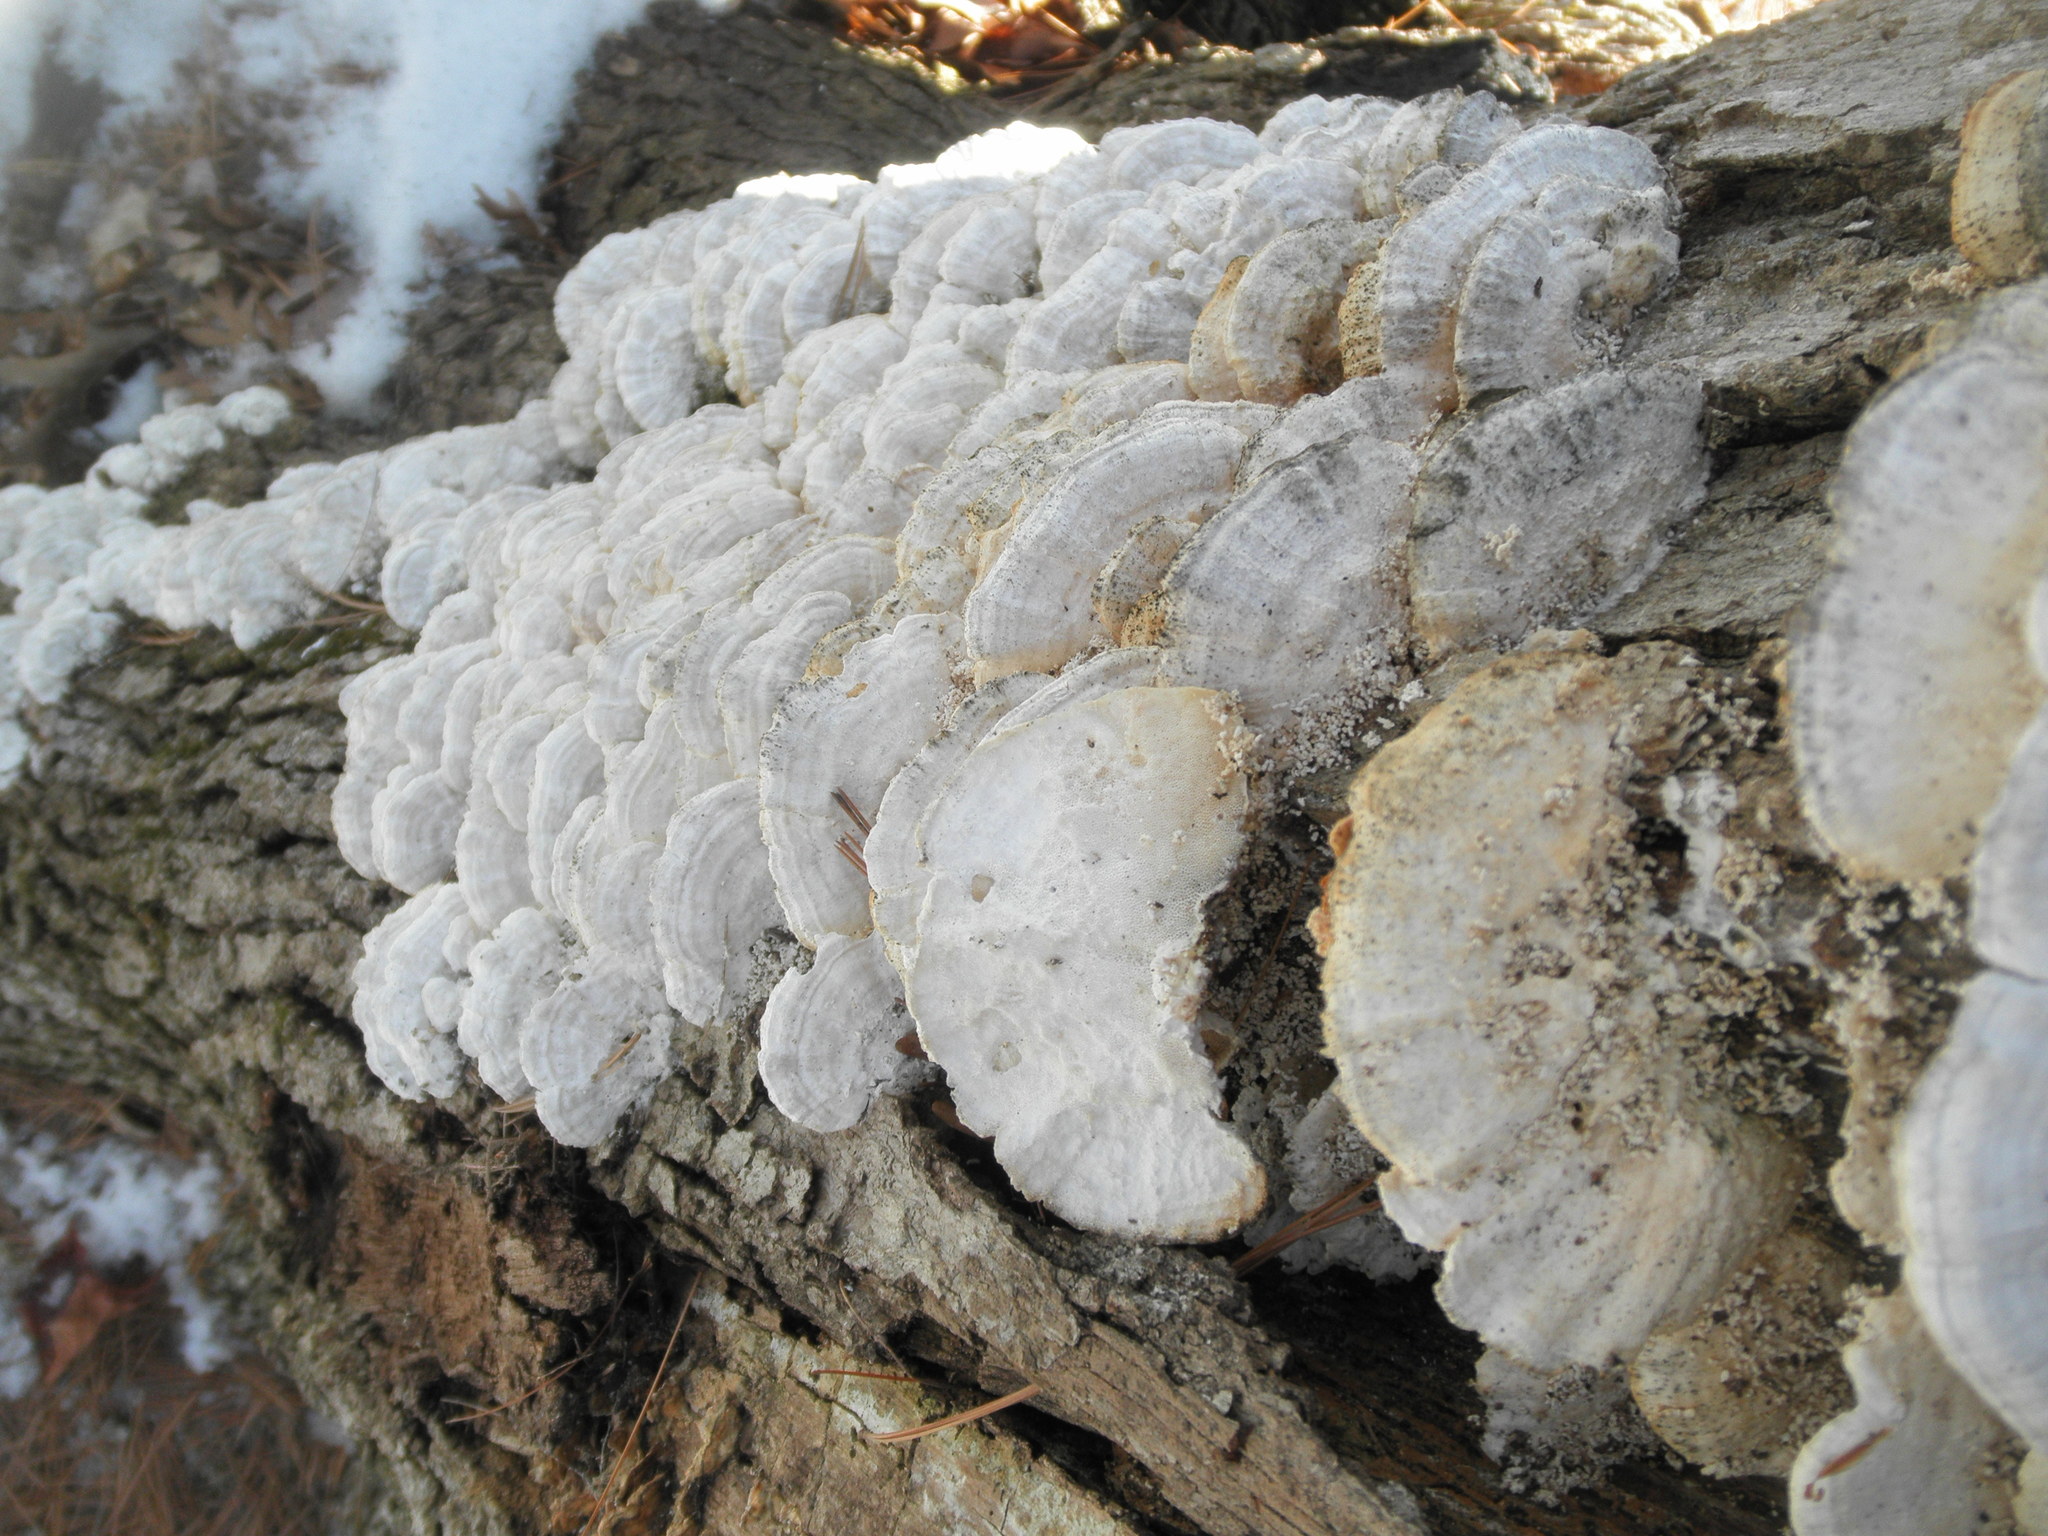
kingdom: Fungi
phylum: Basidiomycota
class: Agaricomycetes
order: Polyporales
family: Polyporaceae
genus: Trametes
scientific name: Trametes pubescens
